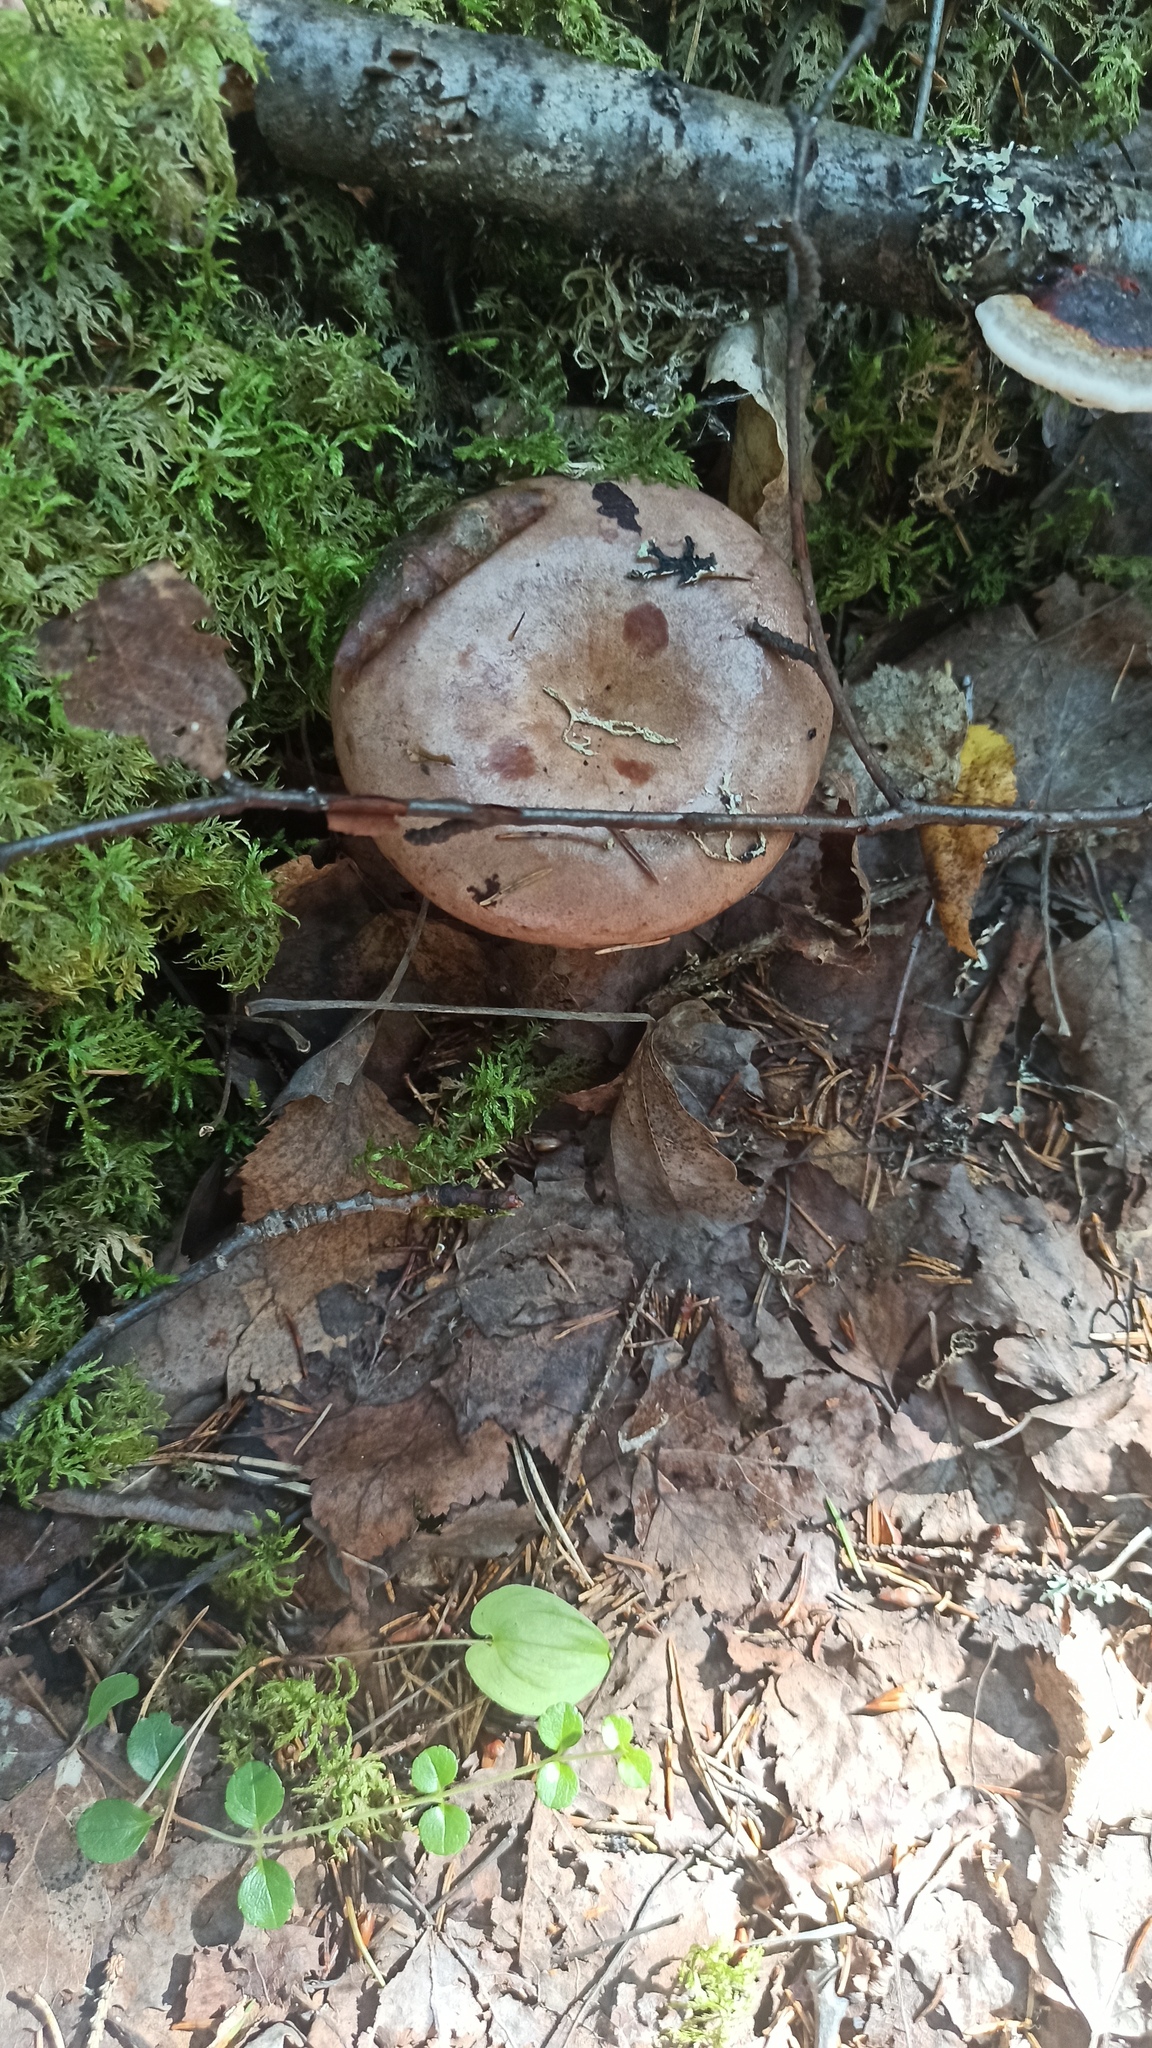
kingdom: Fungi
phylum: Basidiomycota
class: Agaricomycetes
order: Russulales
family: Russulaceae
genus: Lactarius
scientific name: Lactarius trivialis
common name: Tacked milkcap
